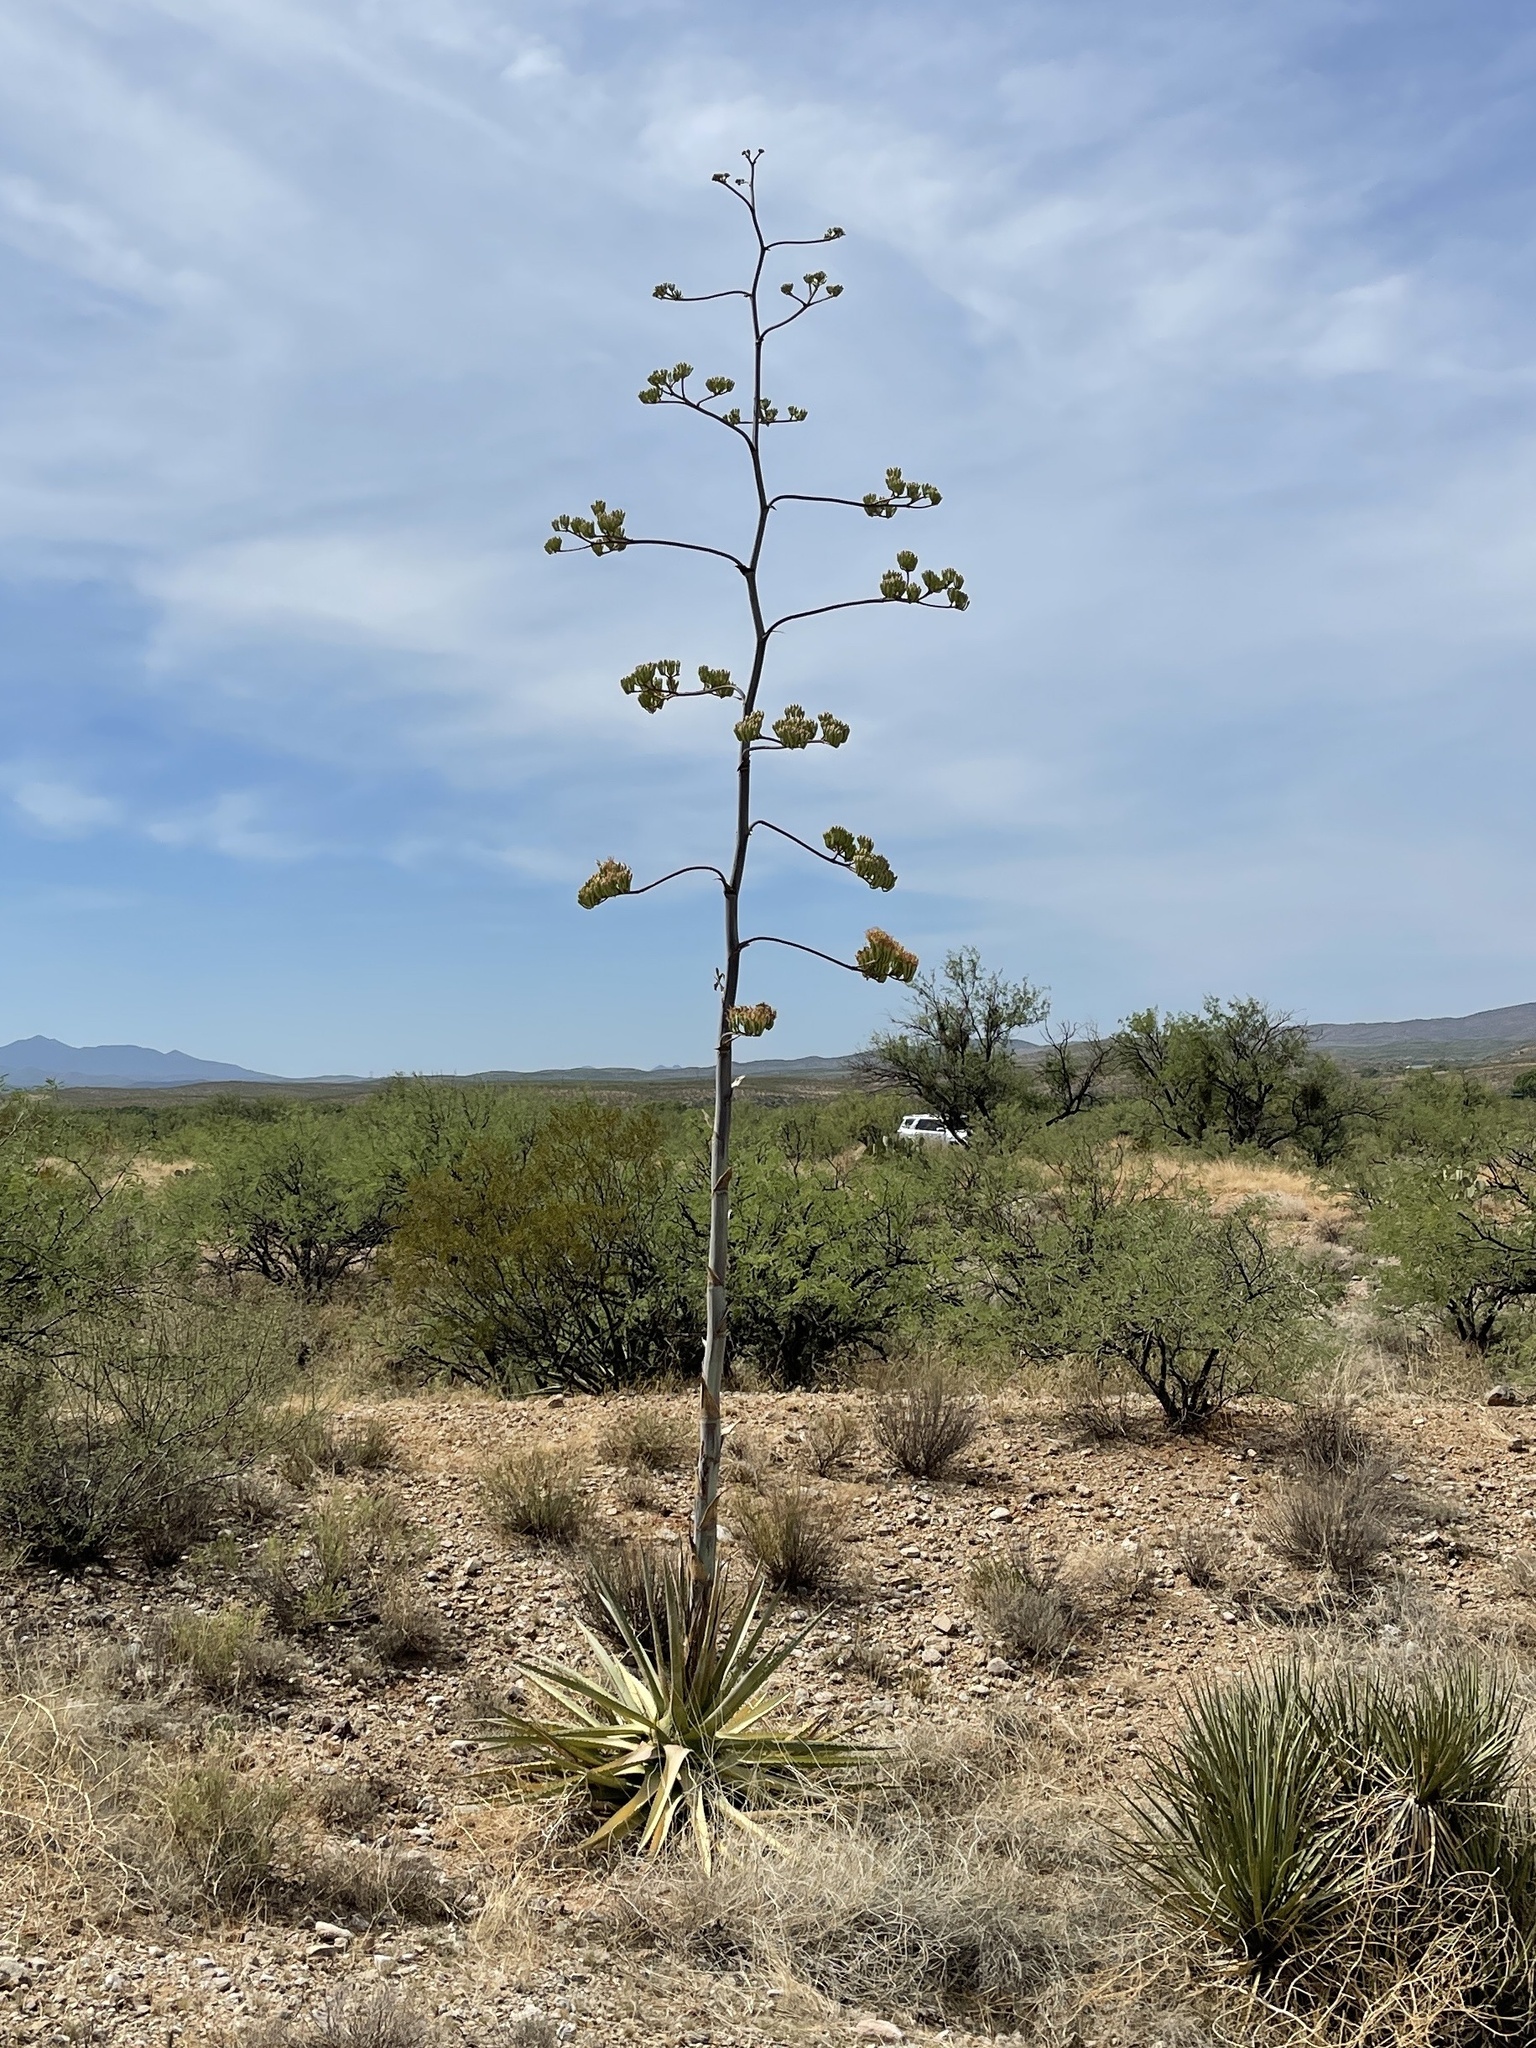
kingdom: Plantae
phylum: Tracheophyta
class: Liliopsida
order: Asparagales
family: Asparagaceae
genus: Agave
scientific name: Agave palmeri
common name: Palmer agave
